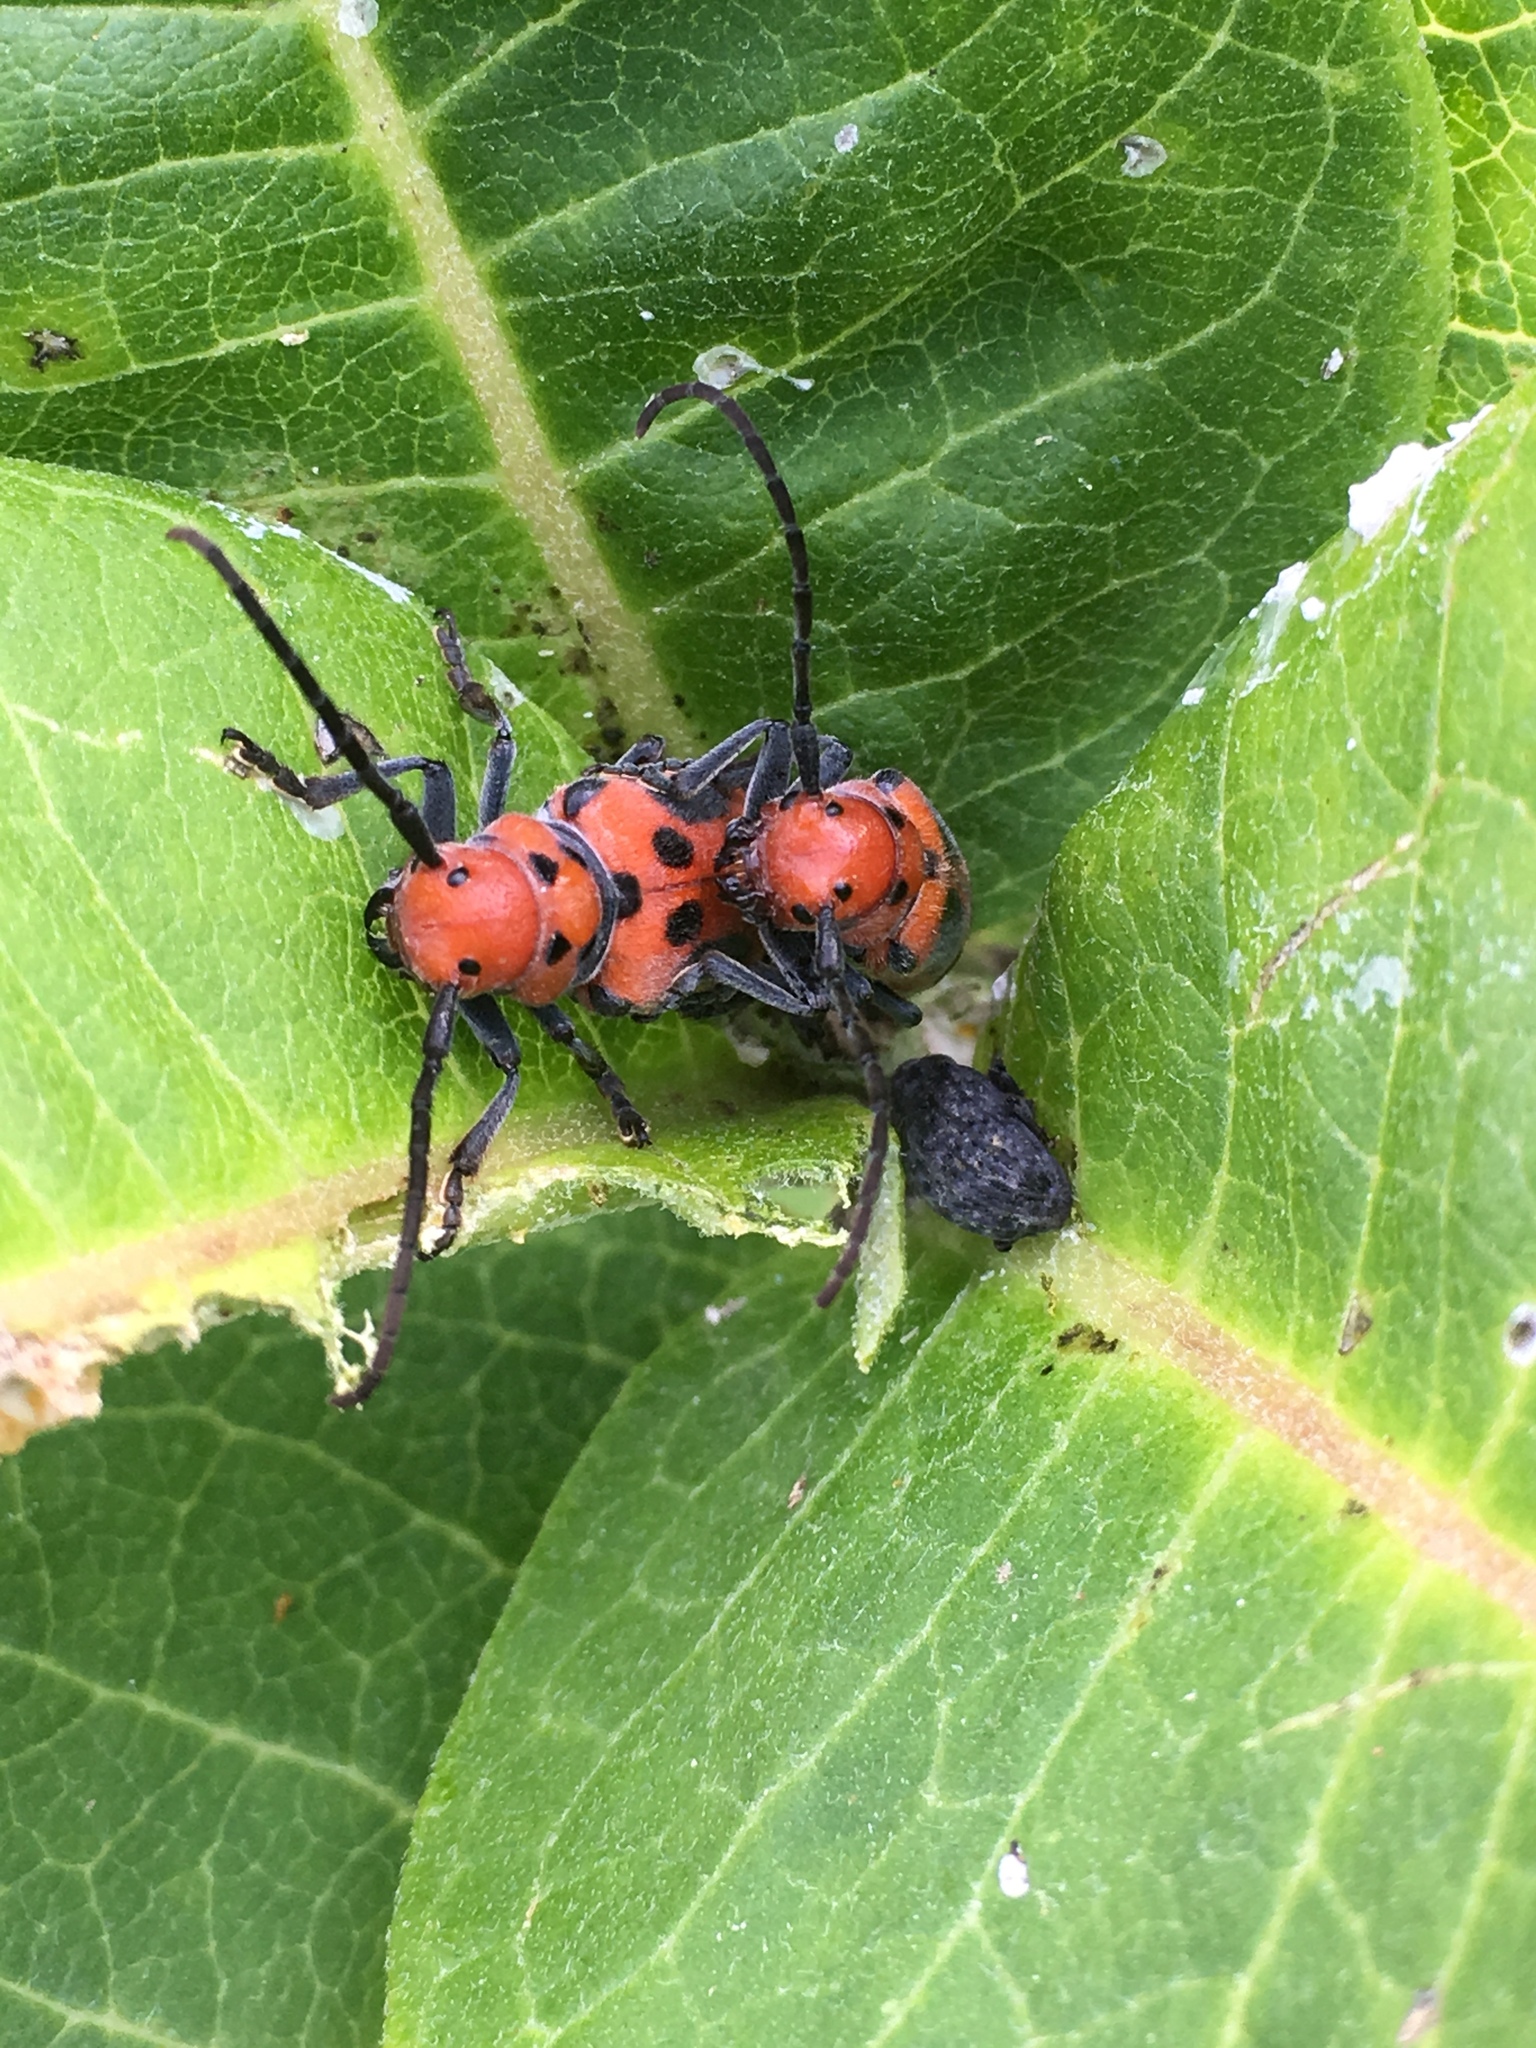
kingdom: Animalia
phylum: Arthropoda
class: Insecta
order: Coleoptera
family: Cerambycidae
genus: Tetraopes
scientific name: Tetraopes tetrophthalmus
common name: Red milkweed beetle
